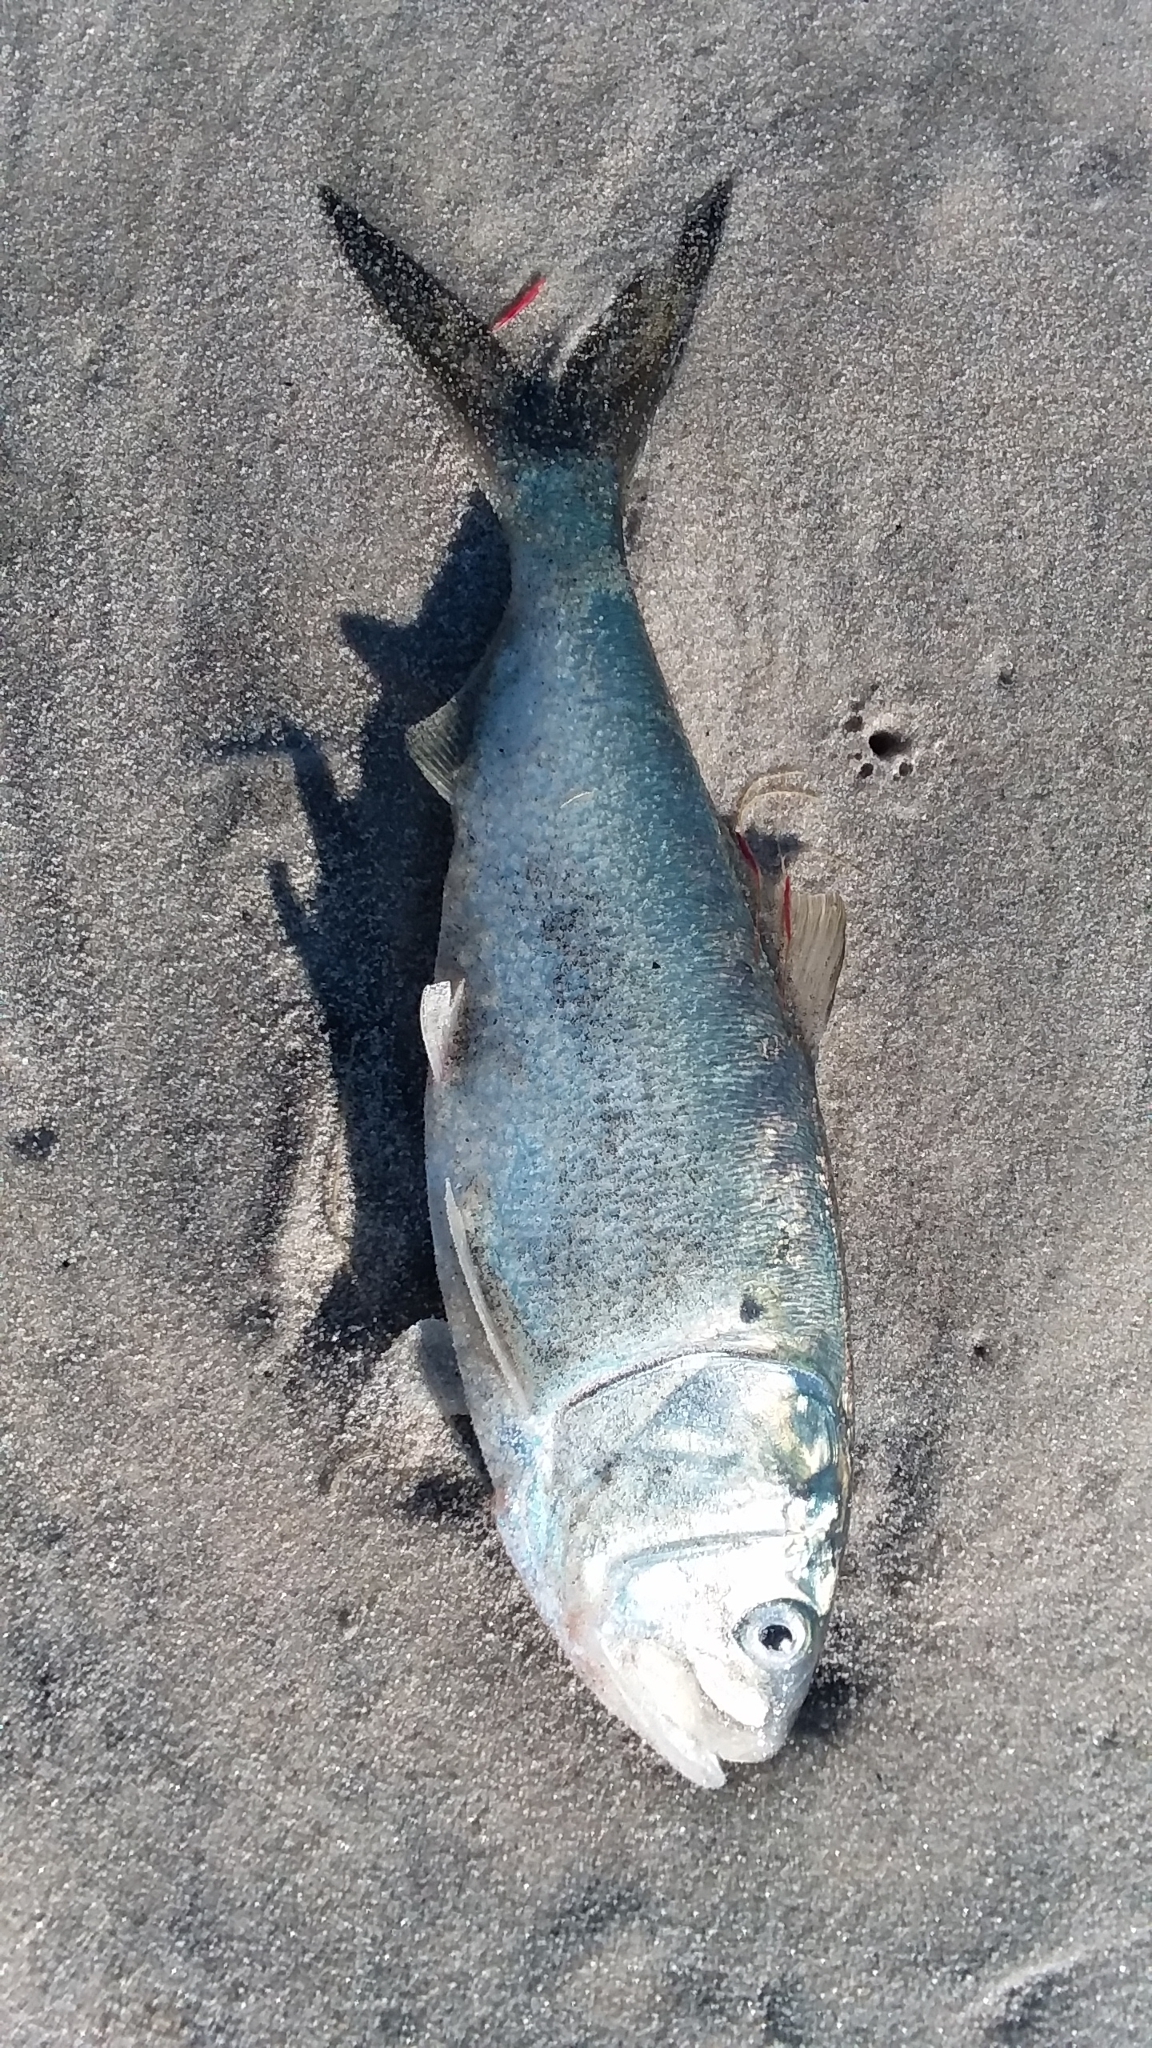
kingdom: Animalia
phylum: Chordata
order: Clupeiformes
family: Clupeidae
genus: Brevoortia
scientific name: Brevoortia tyrannus
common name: Atlantic menhaden
